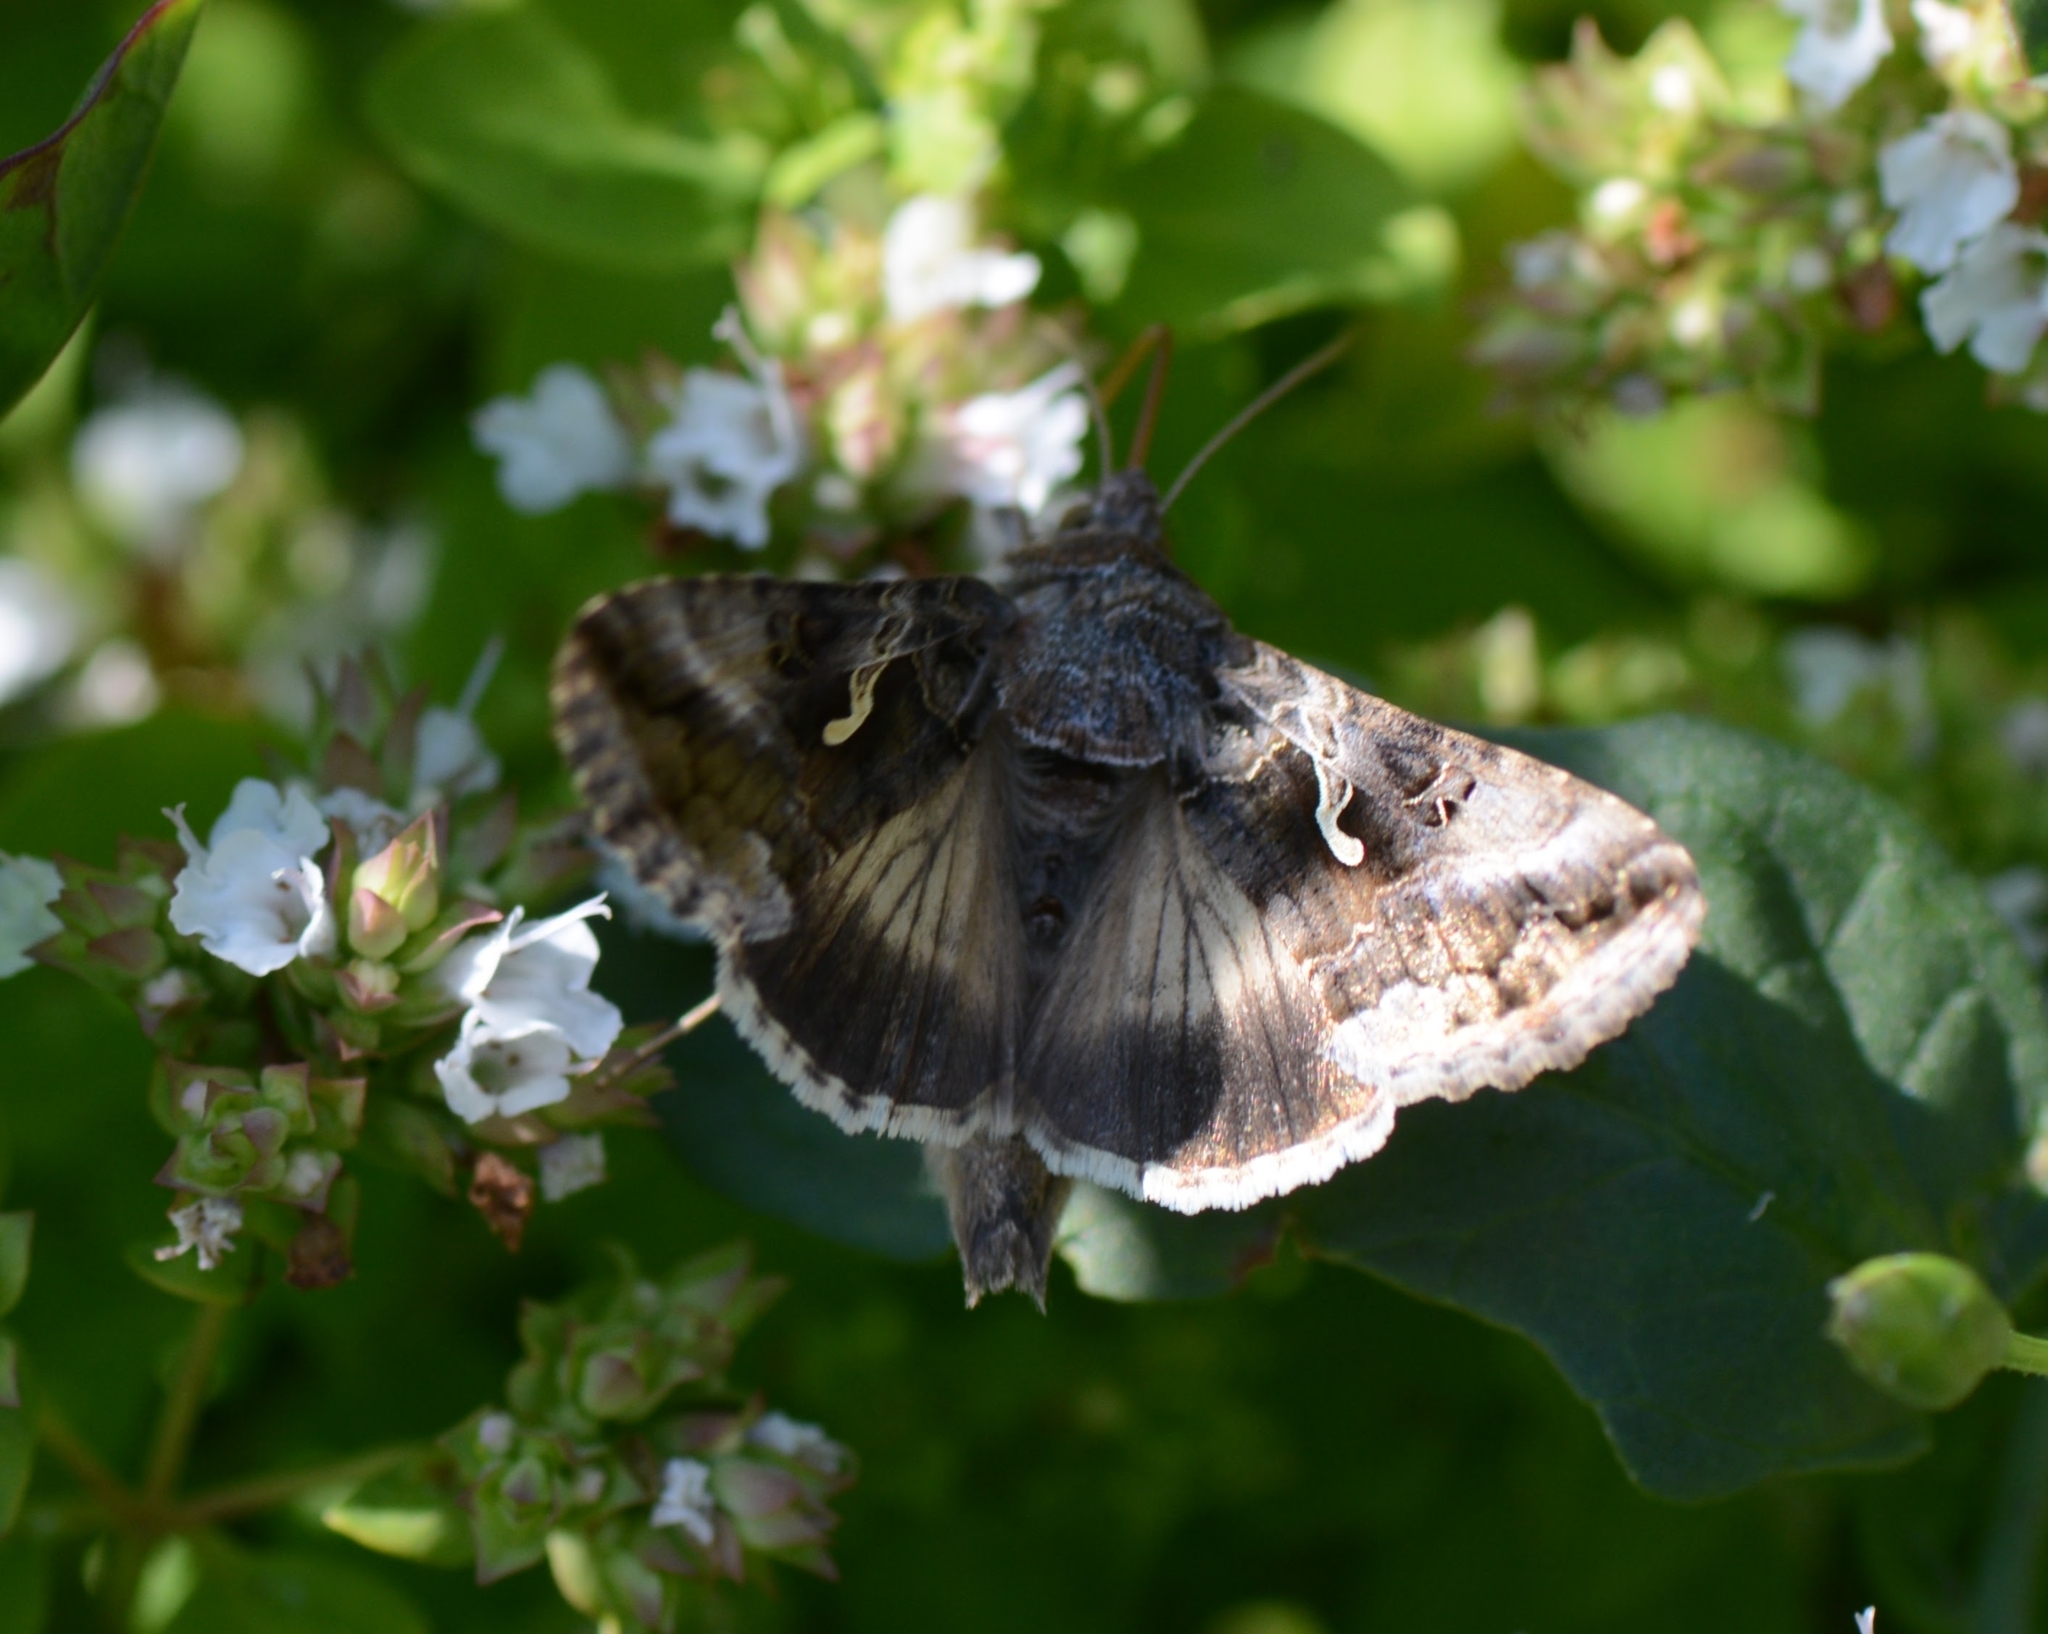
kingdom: Animalia
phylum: Arthropoda
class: Insecta
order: Lepidoptera
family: Noctuidae
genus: Autographa
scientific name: Autographa gamma
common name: Silver y
